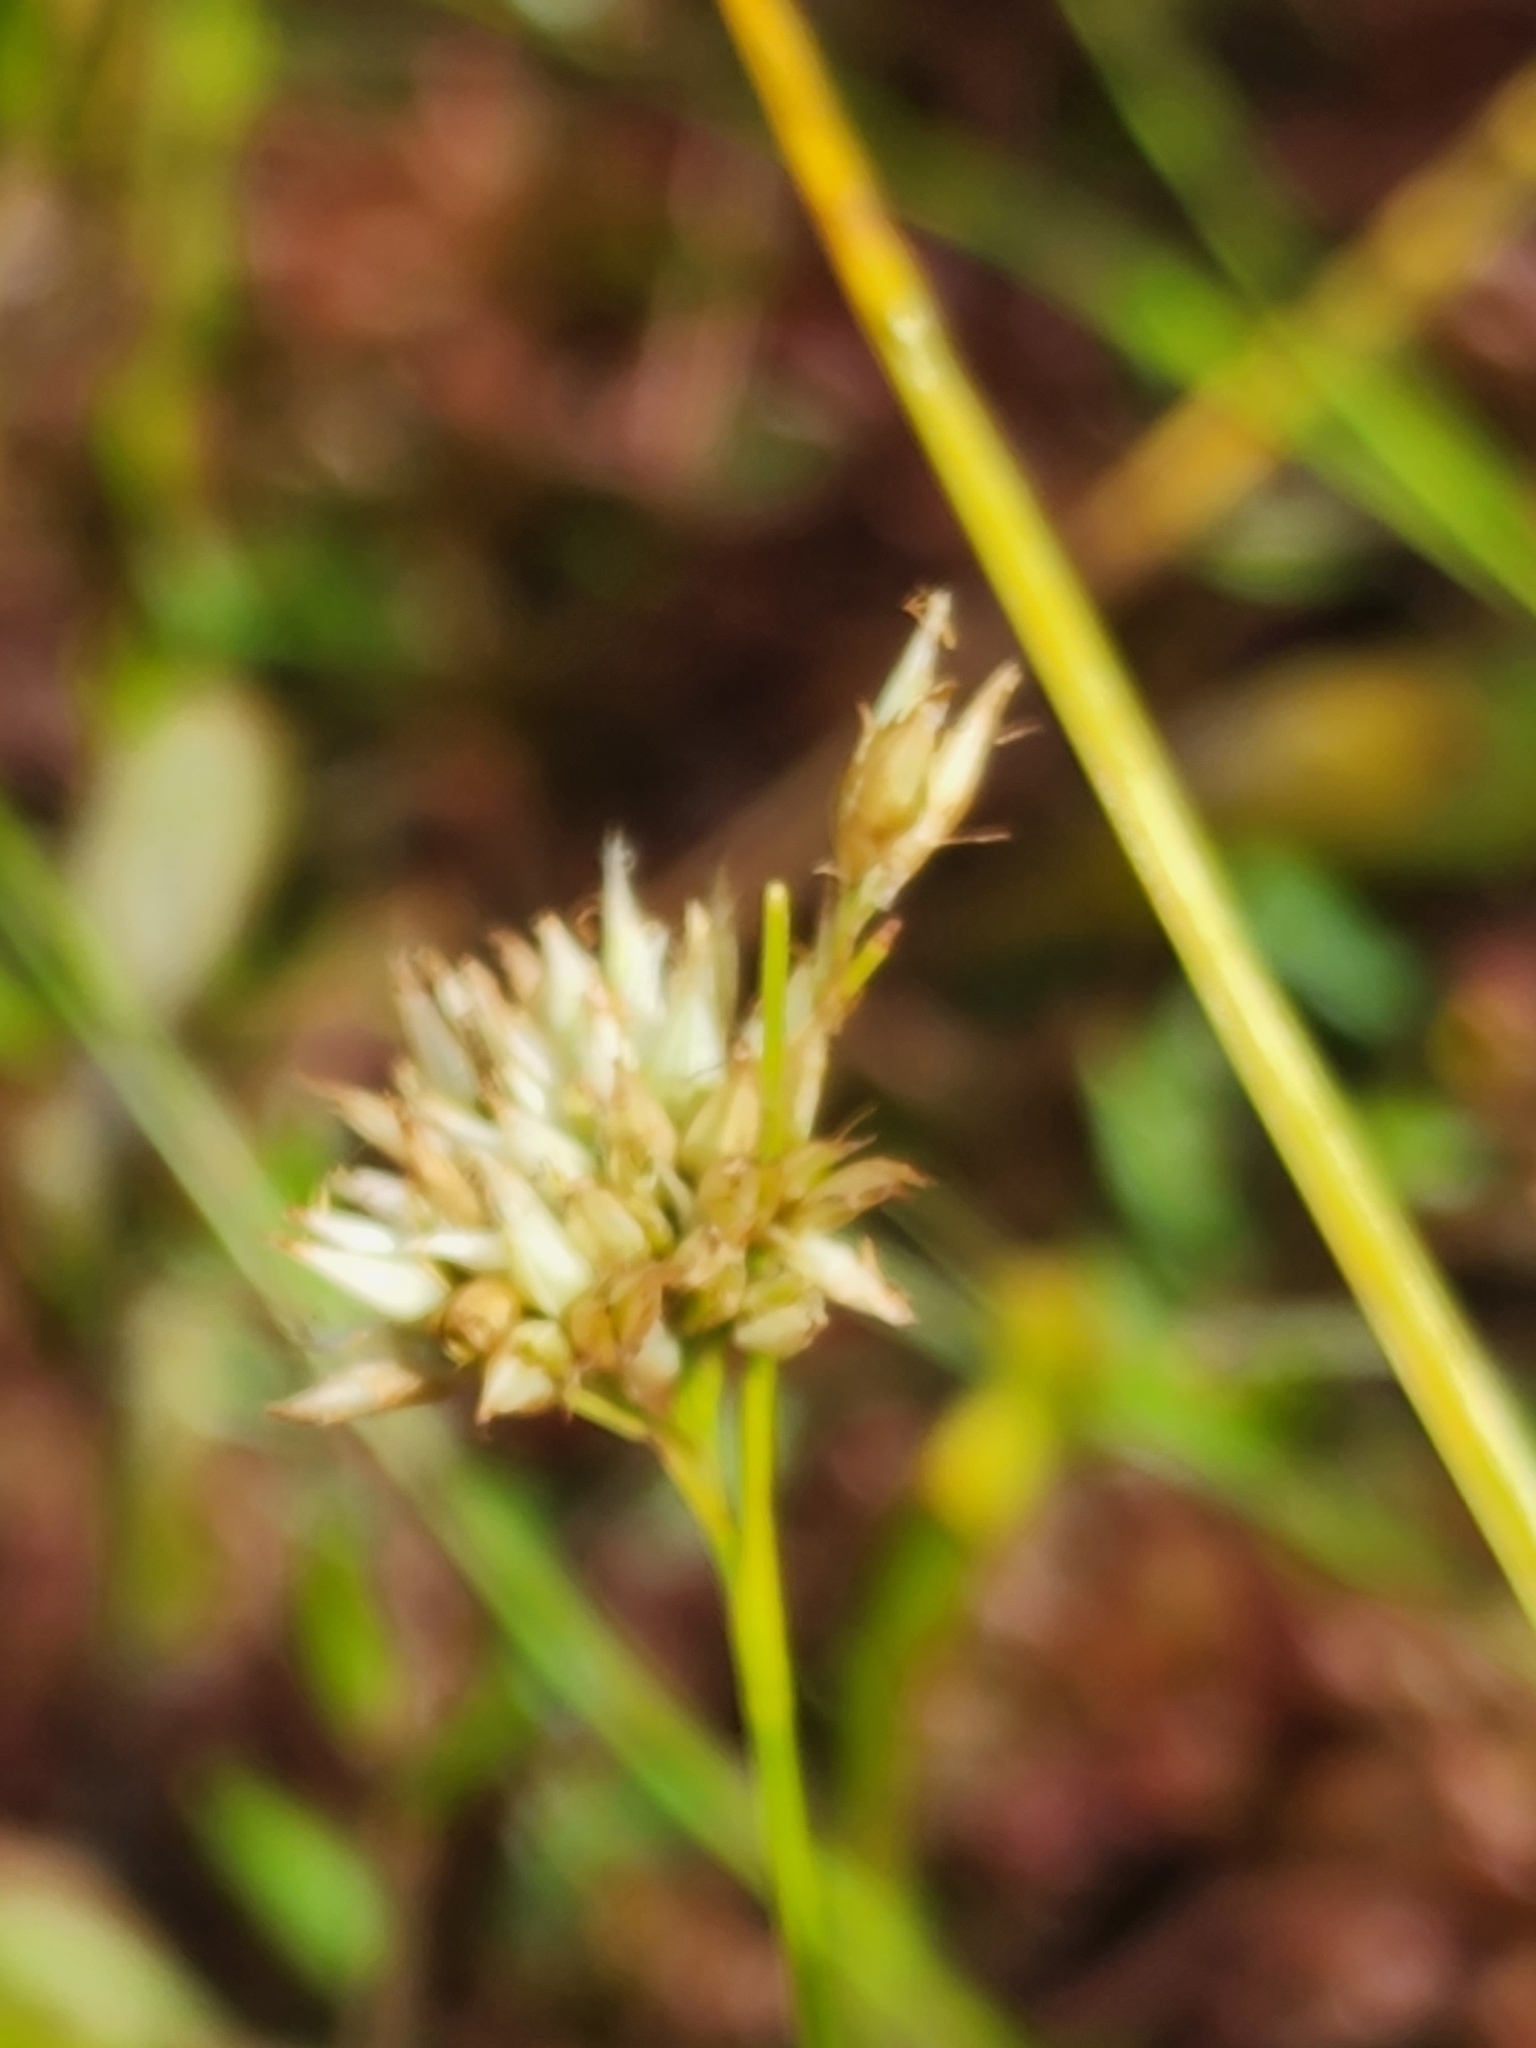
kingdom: Plantae
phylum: Tracheophyta
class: Liliopsida
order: Poales
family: Cyperaceae
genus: Rhynchospora
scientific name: Rhynchospora alba
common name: White beak-sedge
